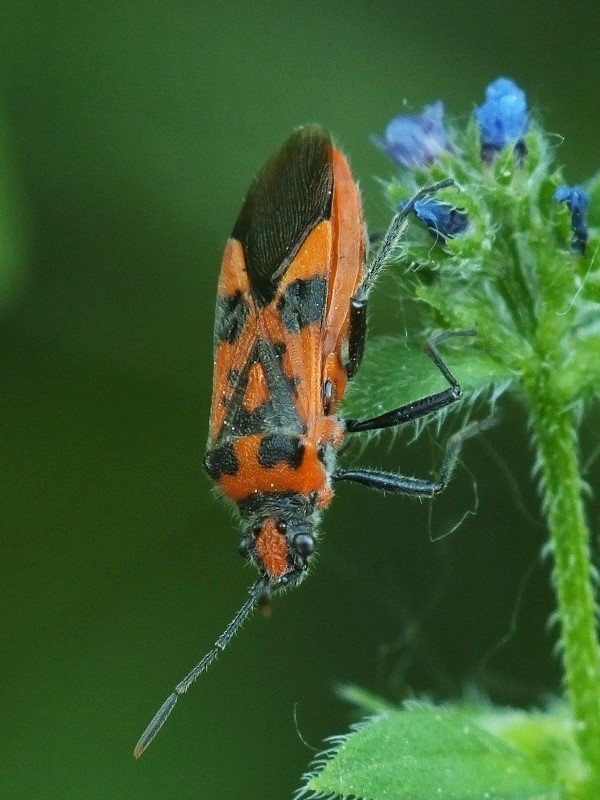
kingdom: Animalia
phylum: Arthropoda
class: Insecta
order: Hemiptera
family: Rhopalidae
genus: Corizus
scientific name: Corizus hyoscyami
